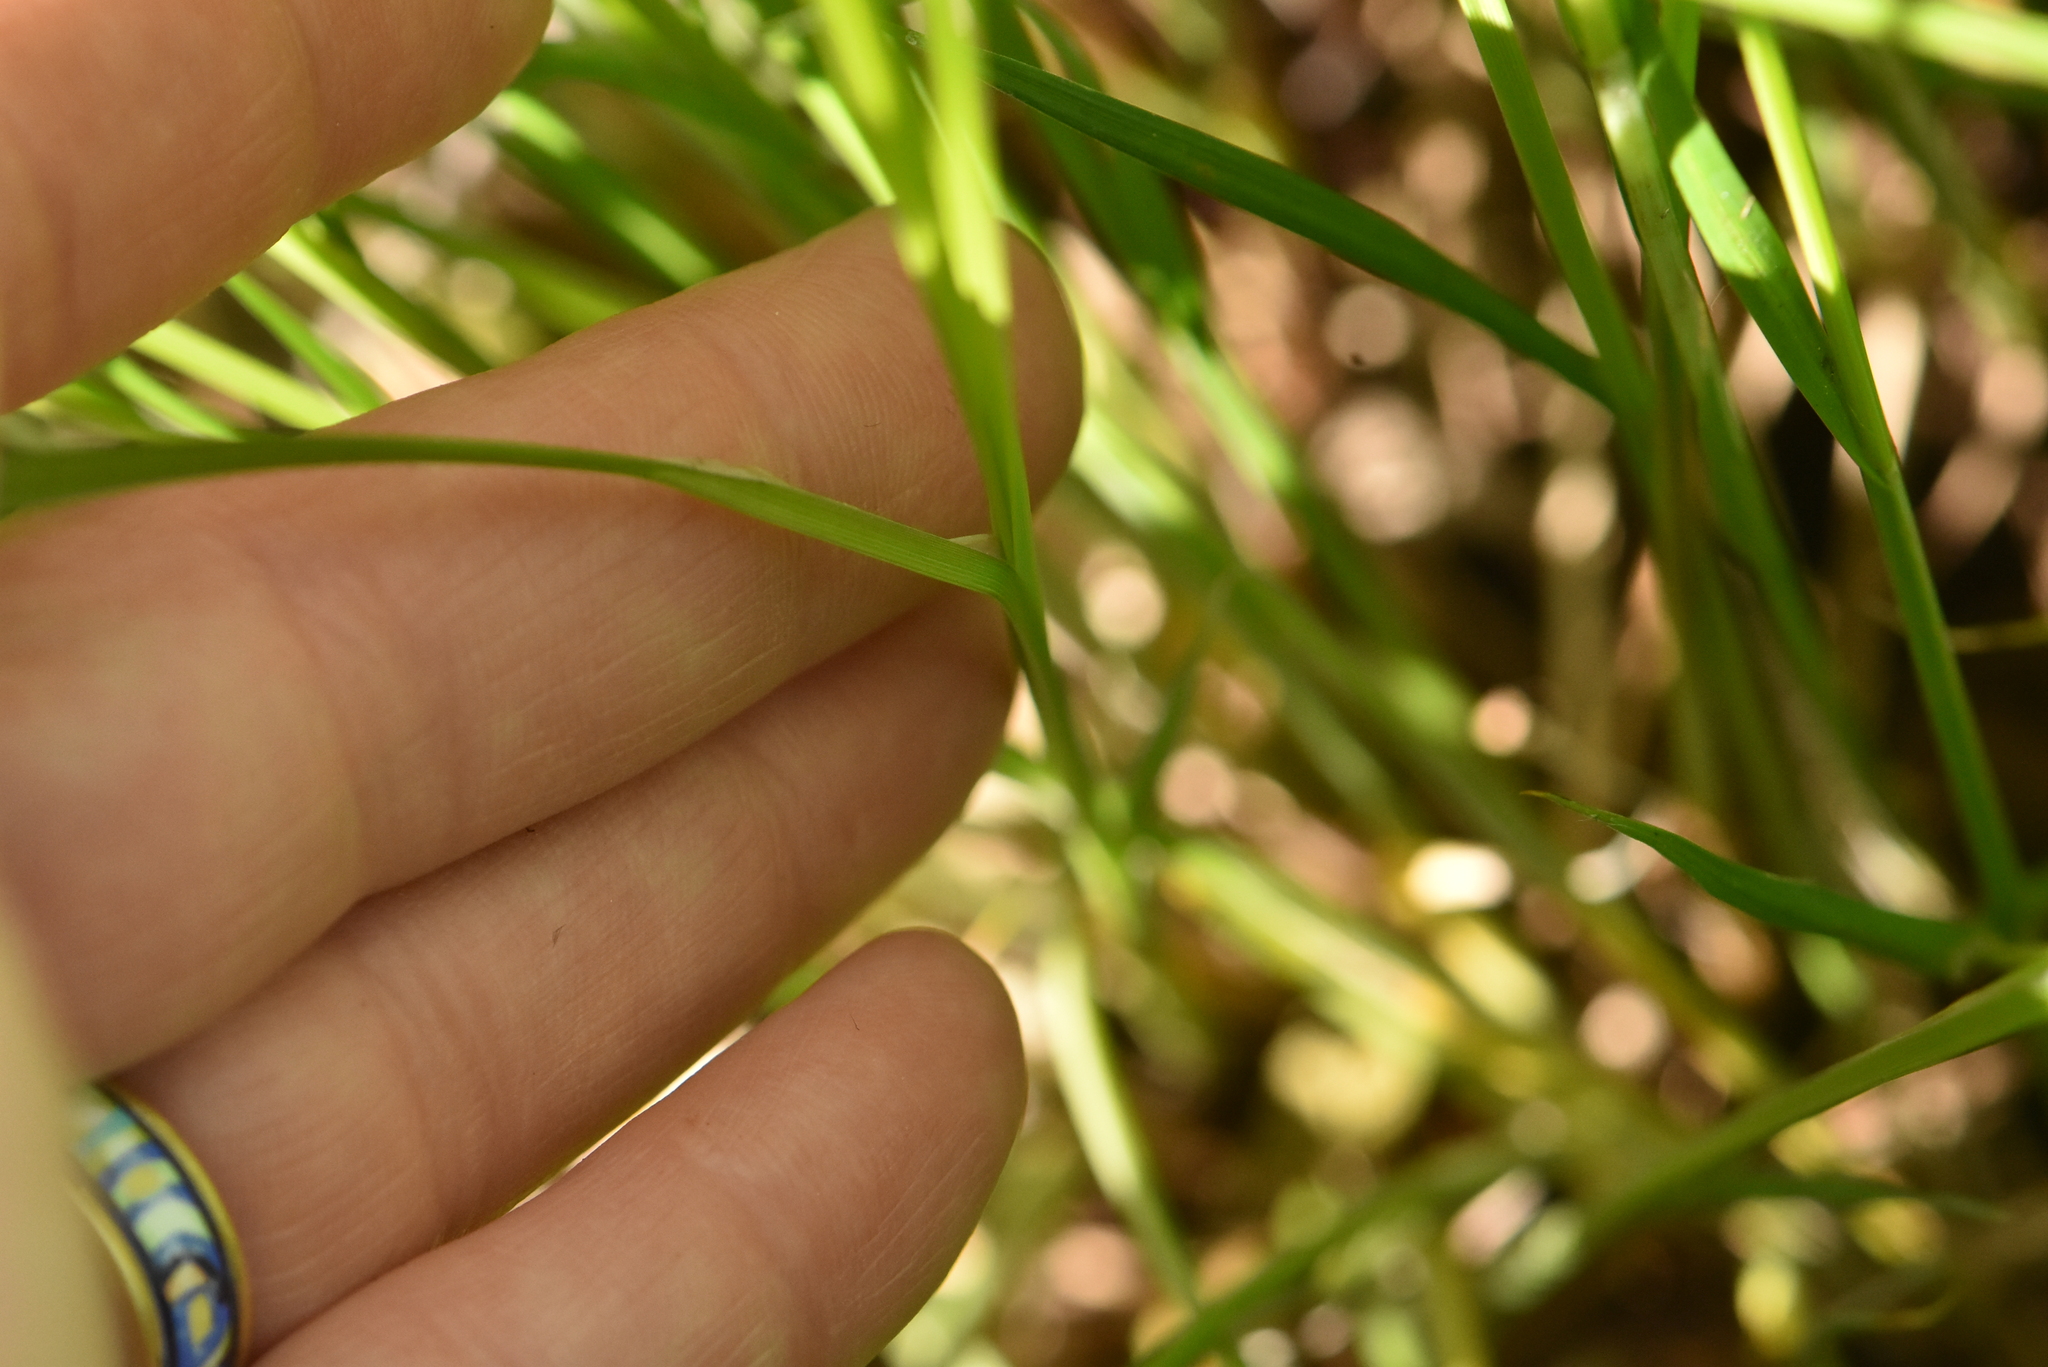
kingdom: Plantae
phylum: Tracheophyta
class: Liliopsida
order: Poales
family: Cyperaceae
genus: Carex
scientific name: Carex cespitosa
